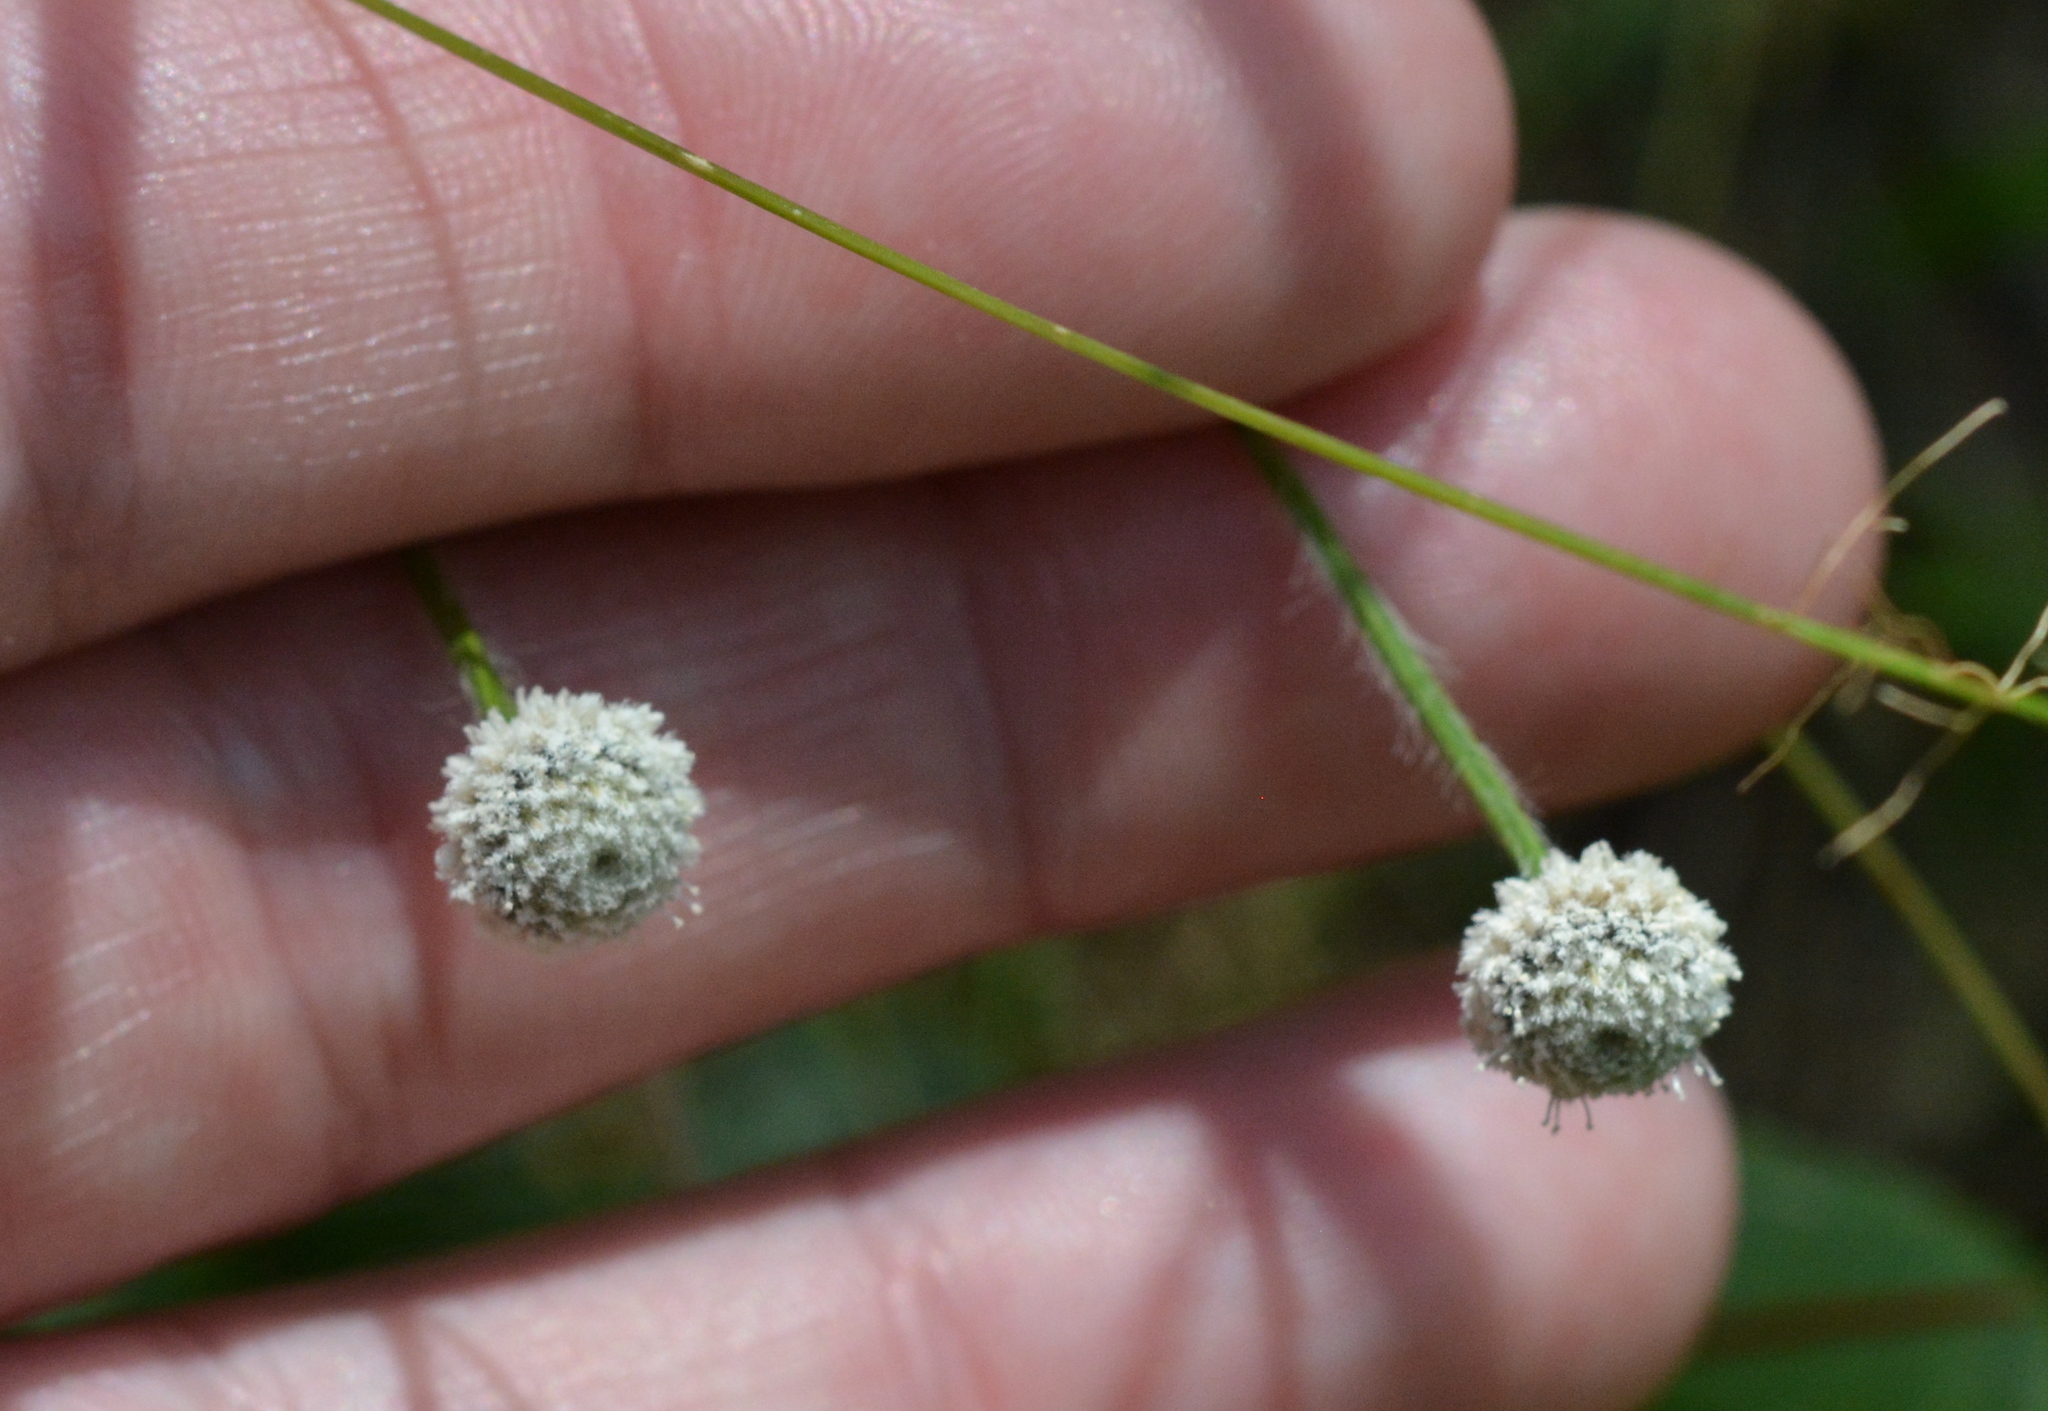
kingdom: Plantae
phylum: Tracheophyta
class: Liliopsida
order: Poales
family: Eriocaulaceae
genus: Paepalanthus
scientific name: Paepalanthus anceps
